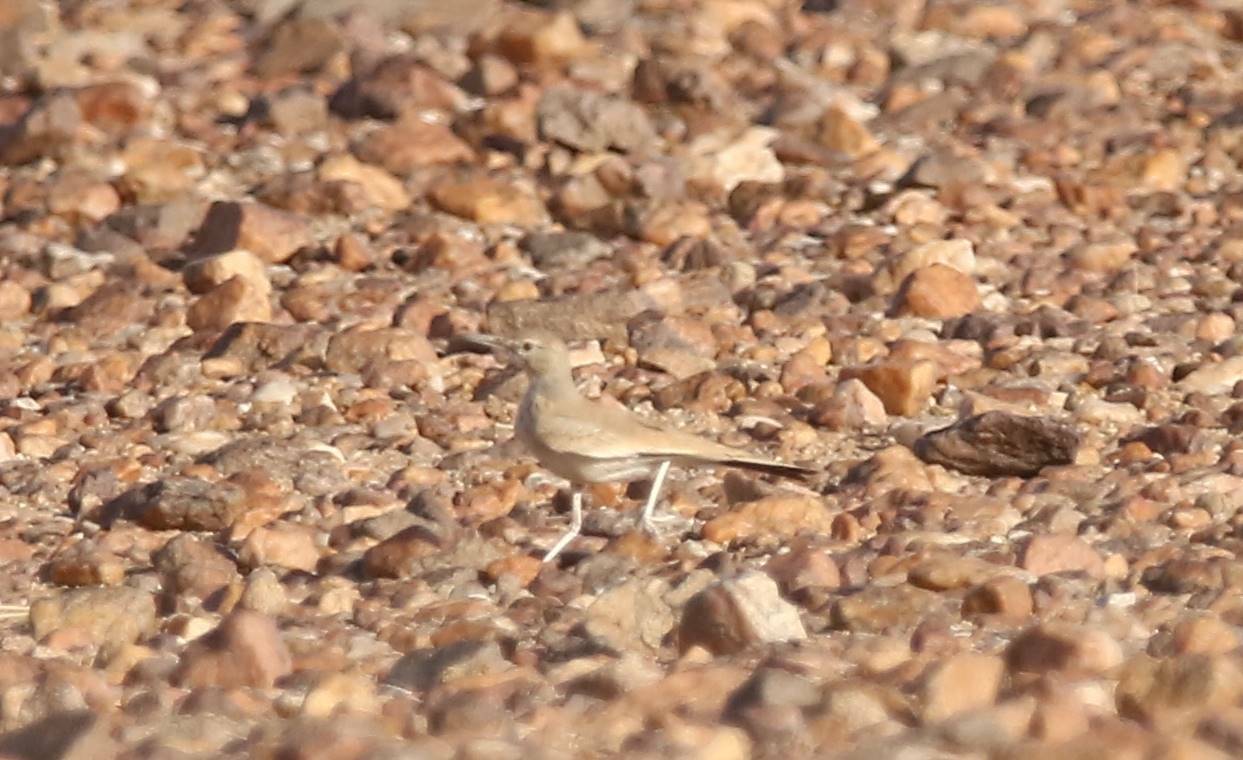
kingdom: Animalia
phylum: Chordata
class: Aves
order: Passeriformes
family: Alaudidae
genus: Alaemon
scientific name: Alaemon alaudipes
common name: Greater hoopoe-lark
